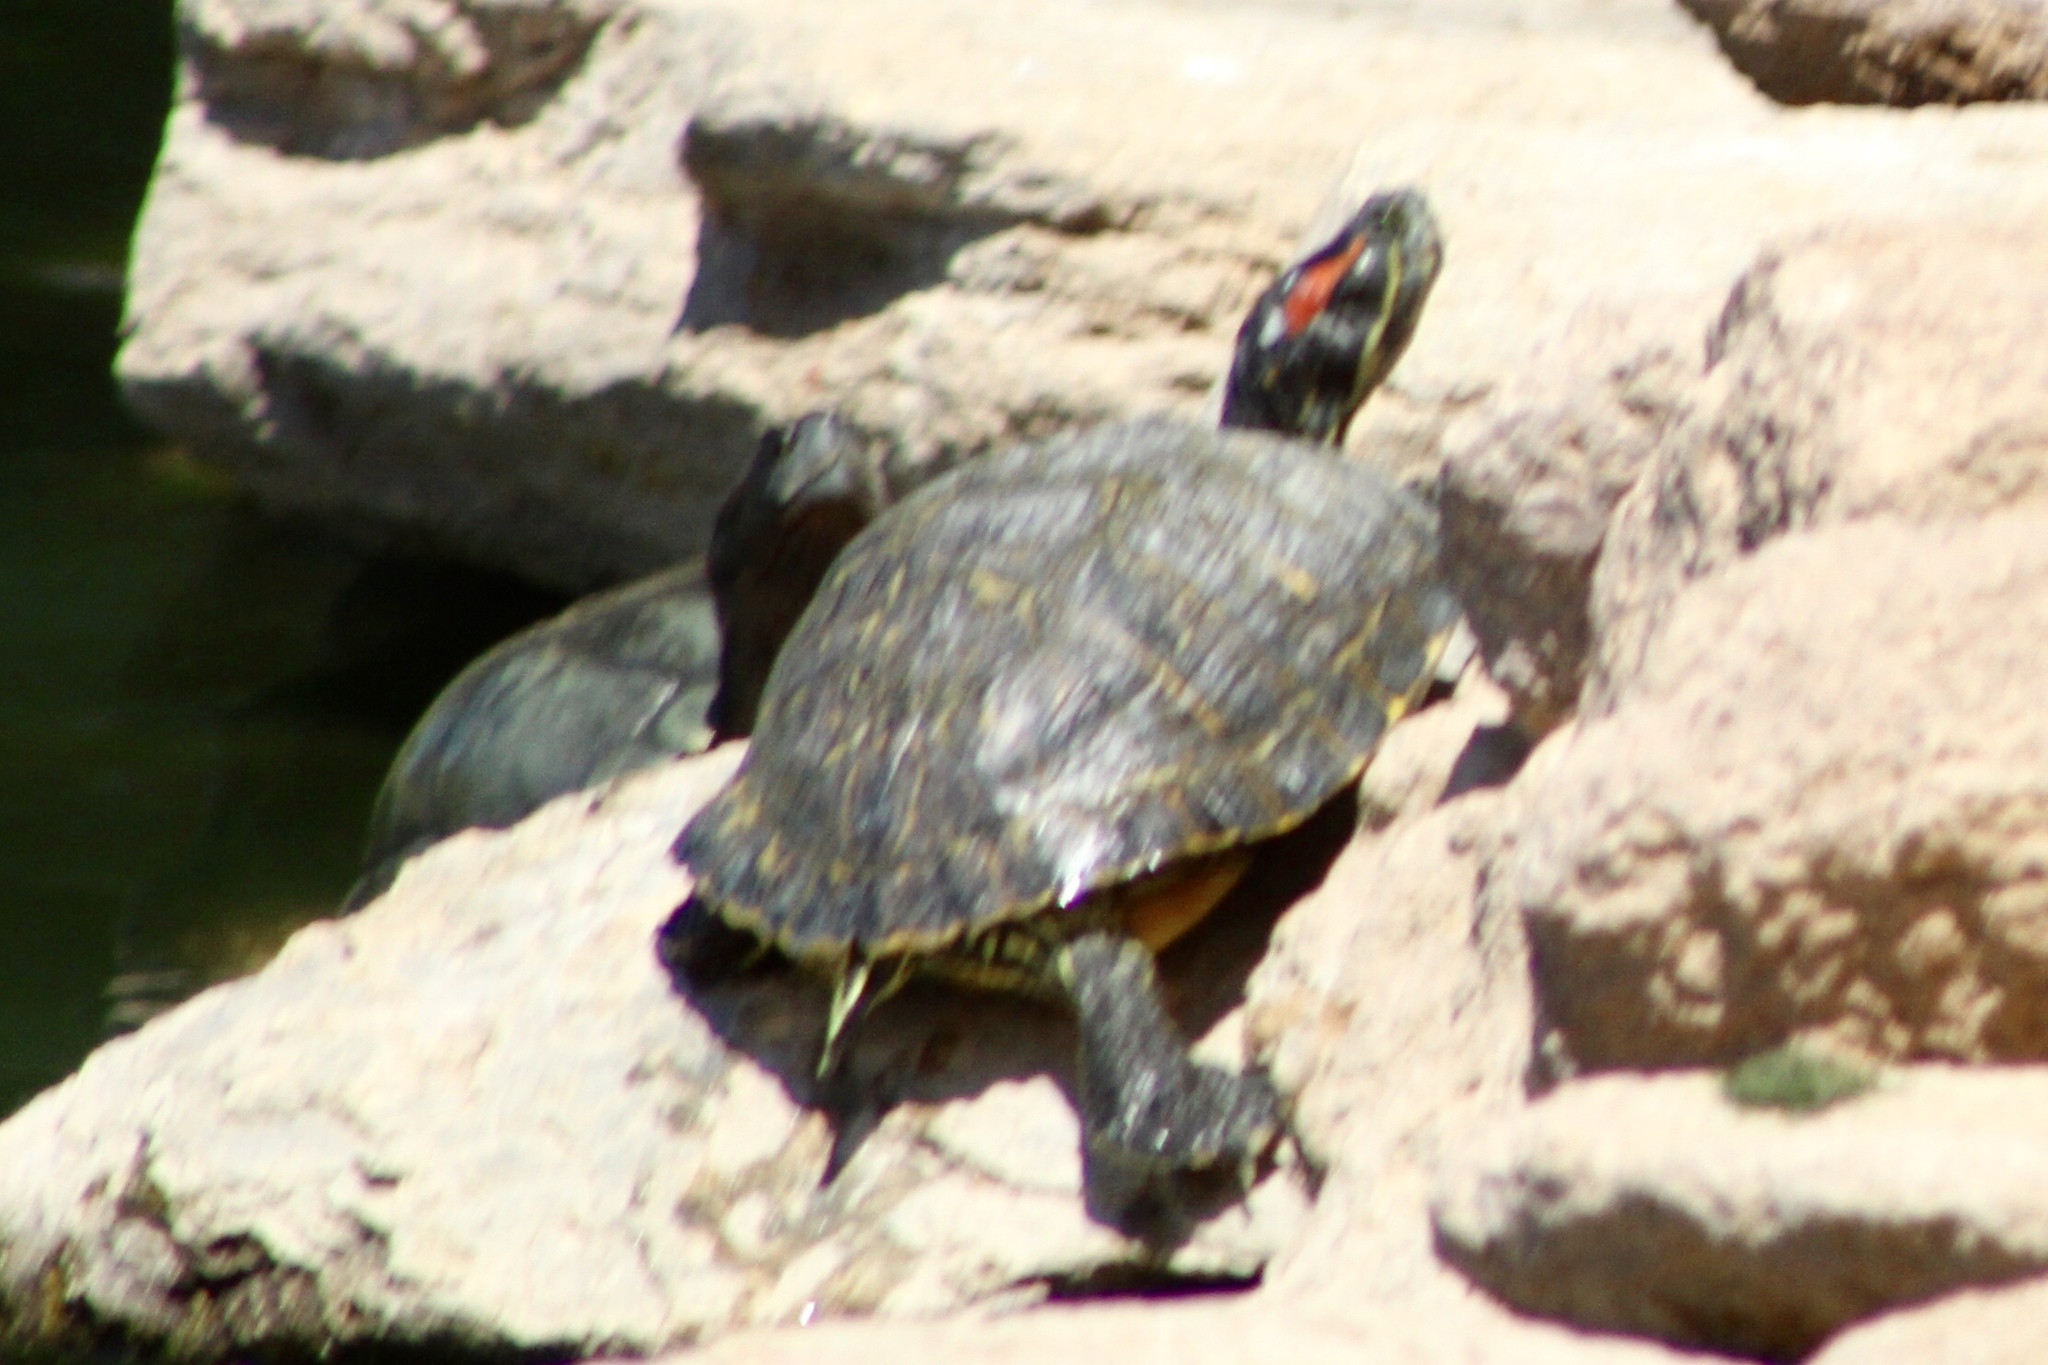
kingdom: Animalia
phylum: Chordata
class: Testudines
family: Emydidae
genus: Trachemys
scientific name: Trachemys scripta
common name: Slider
